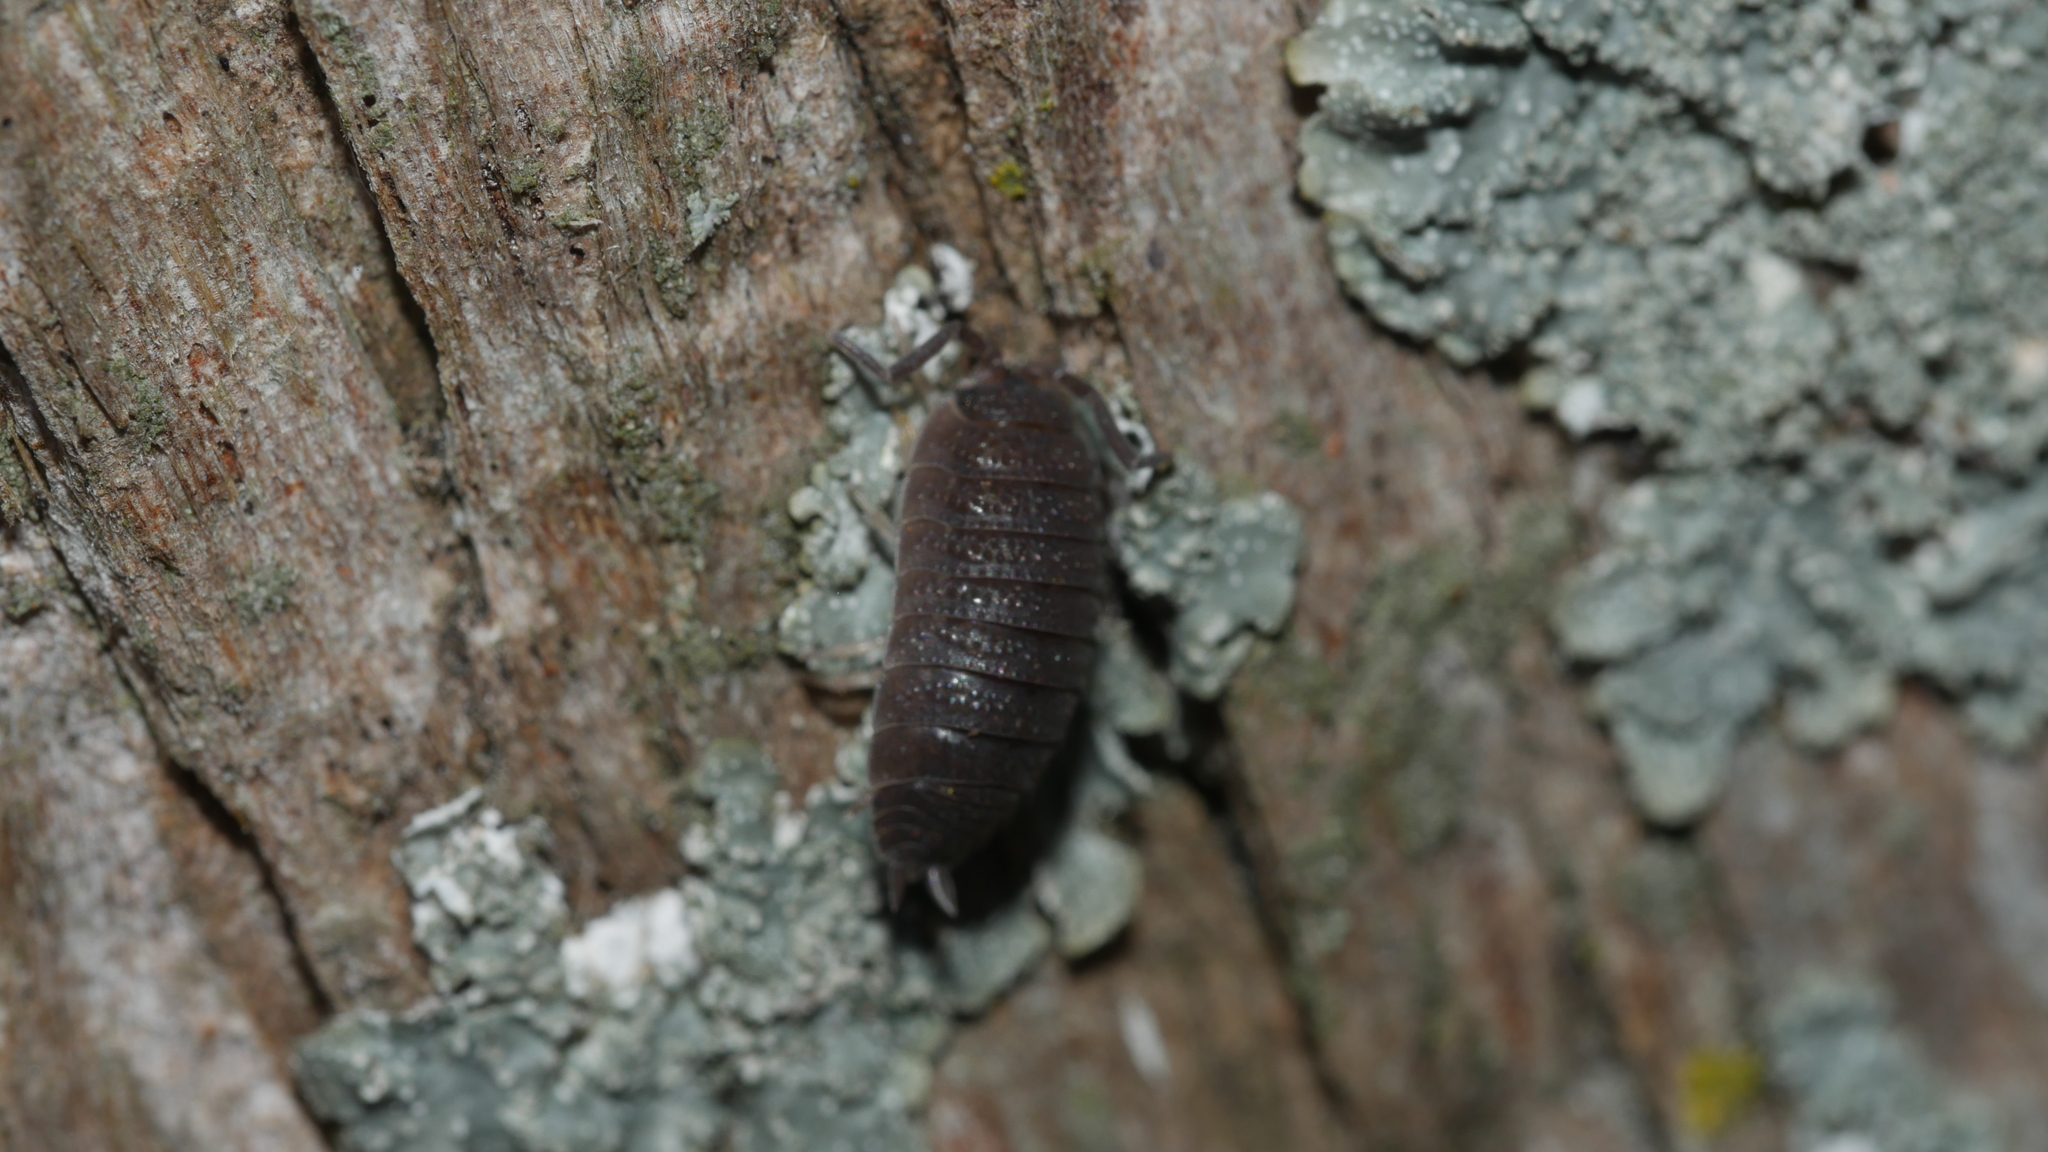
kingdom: Animalia
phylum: Arthropoda
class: Malacostraca
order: Isopoda
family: Porcellionidae
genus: Porcellio
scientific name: Porcellio scaber
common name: Common rough woodlouse
